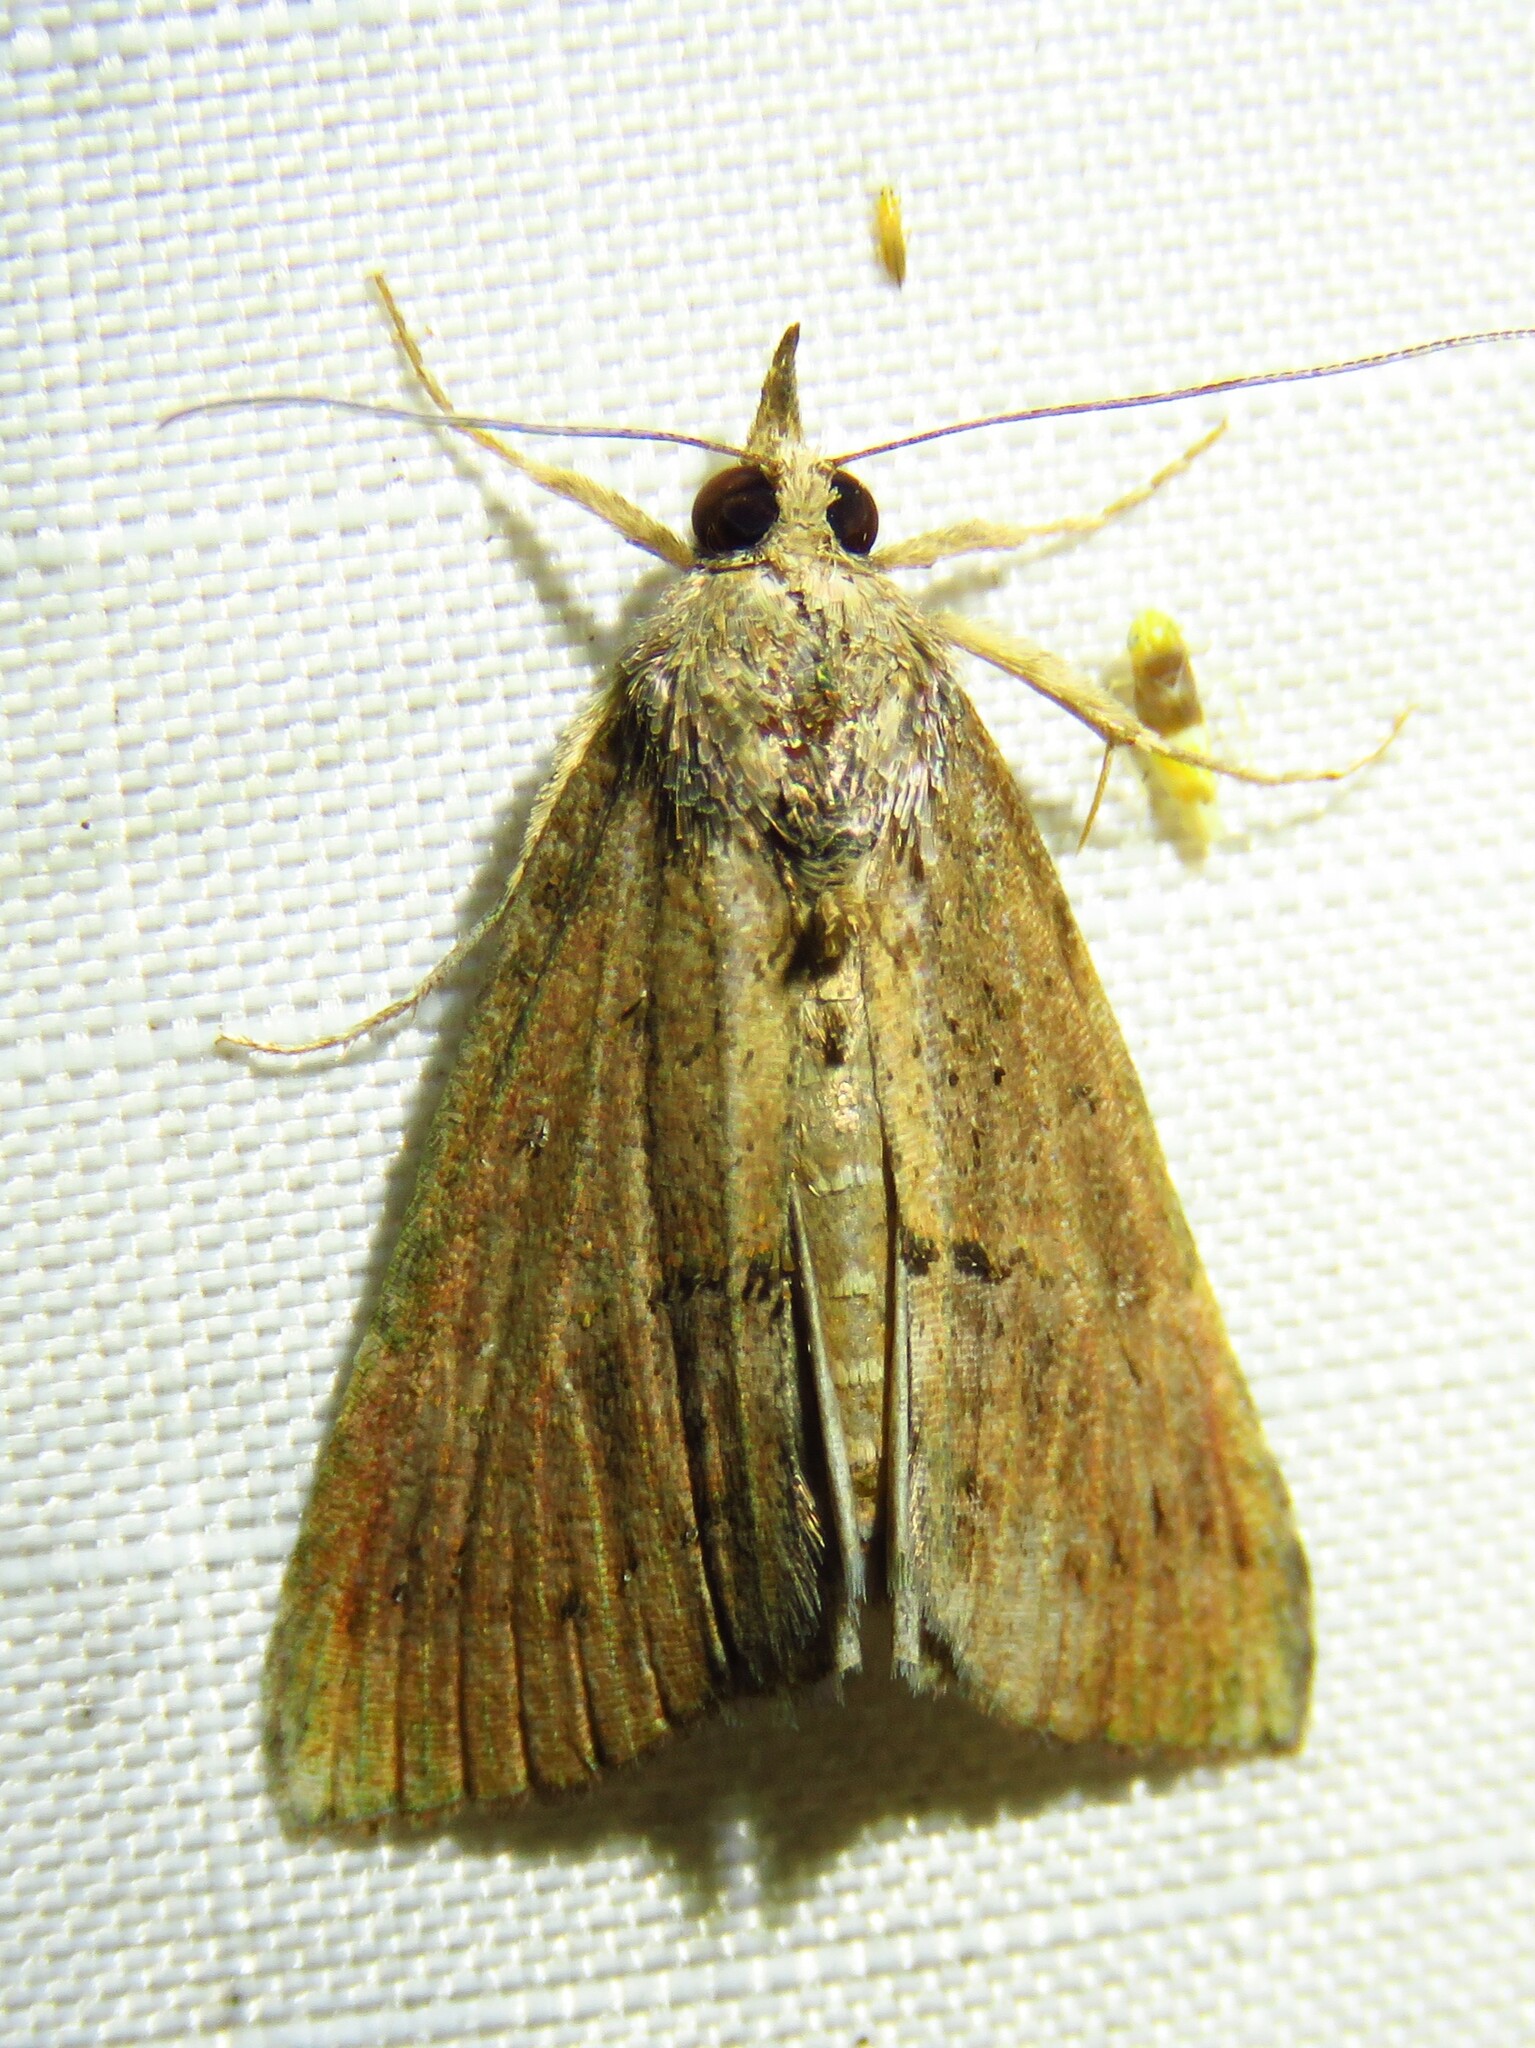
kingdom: Animalia
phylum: Arthropoda
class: Insecta
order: Lepidoptera
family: Erebidae
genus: Hypena
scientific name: Hypena scabra
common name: Green cloverworm
